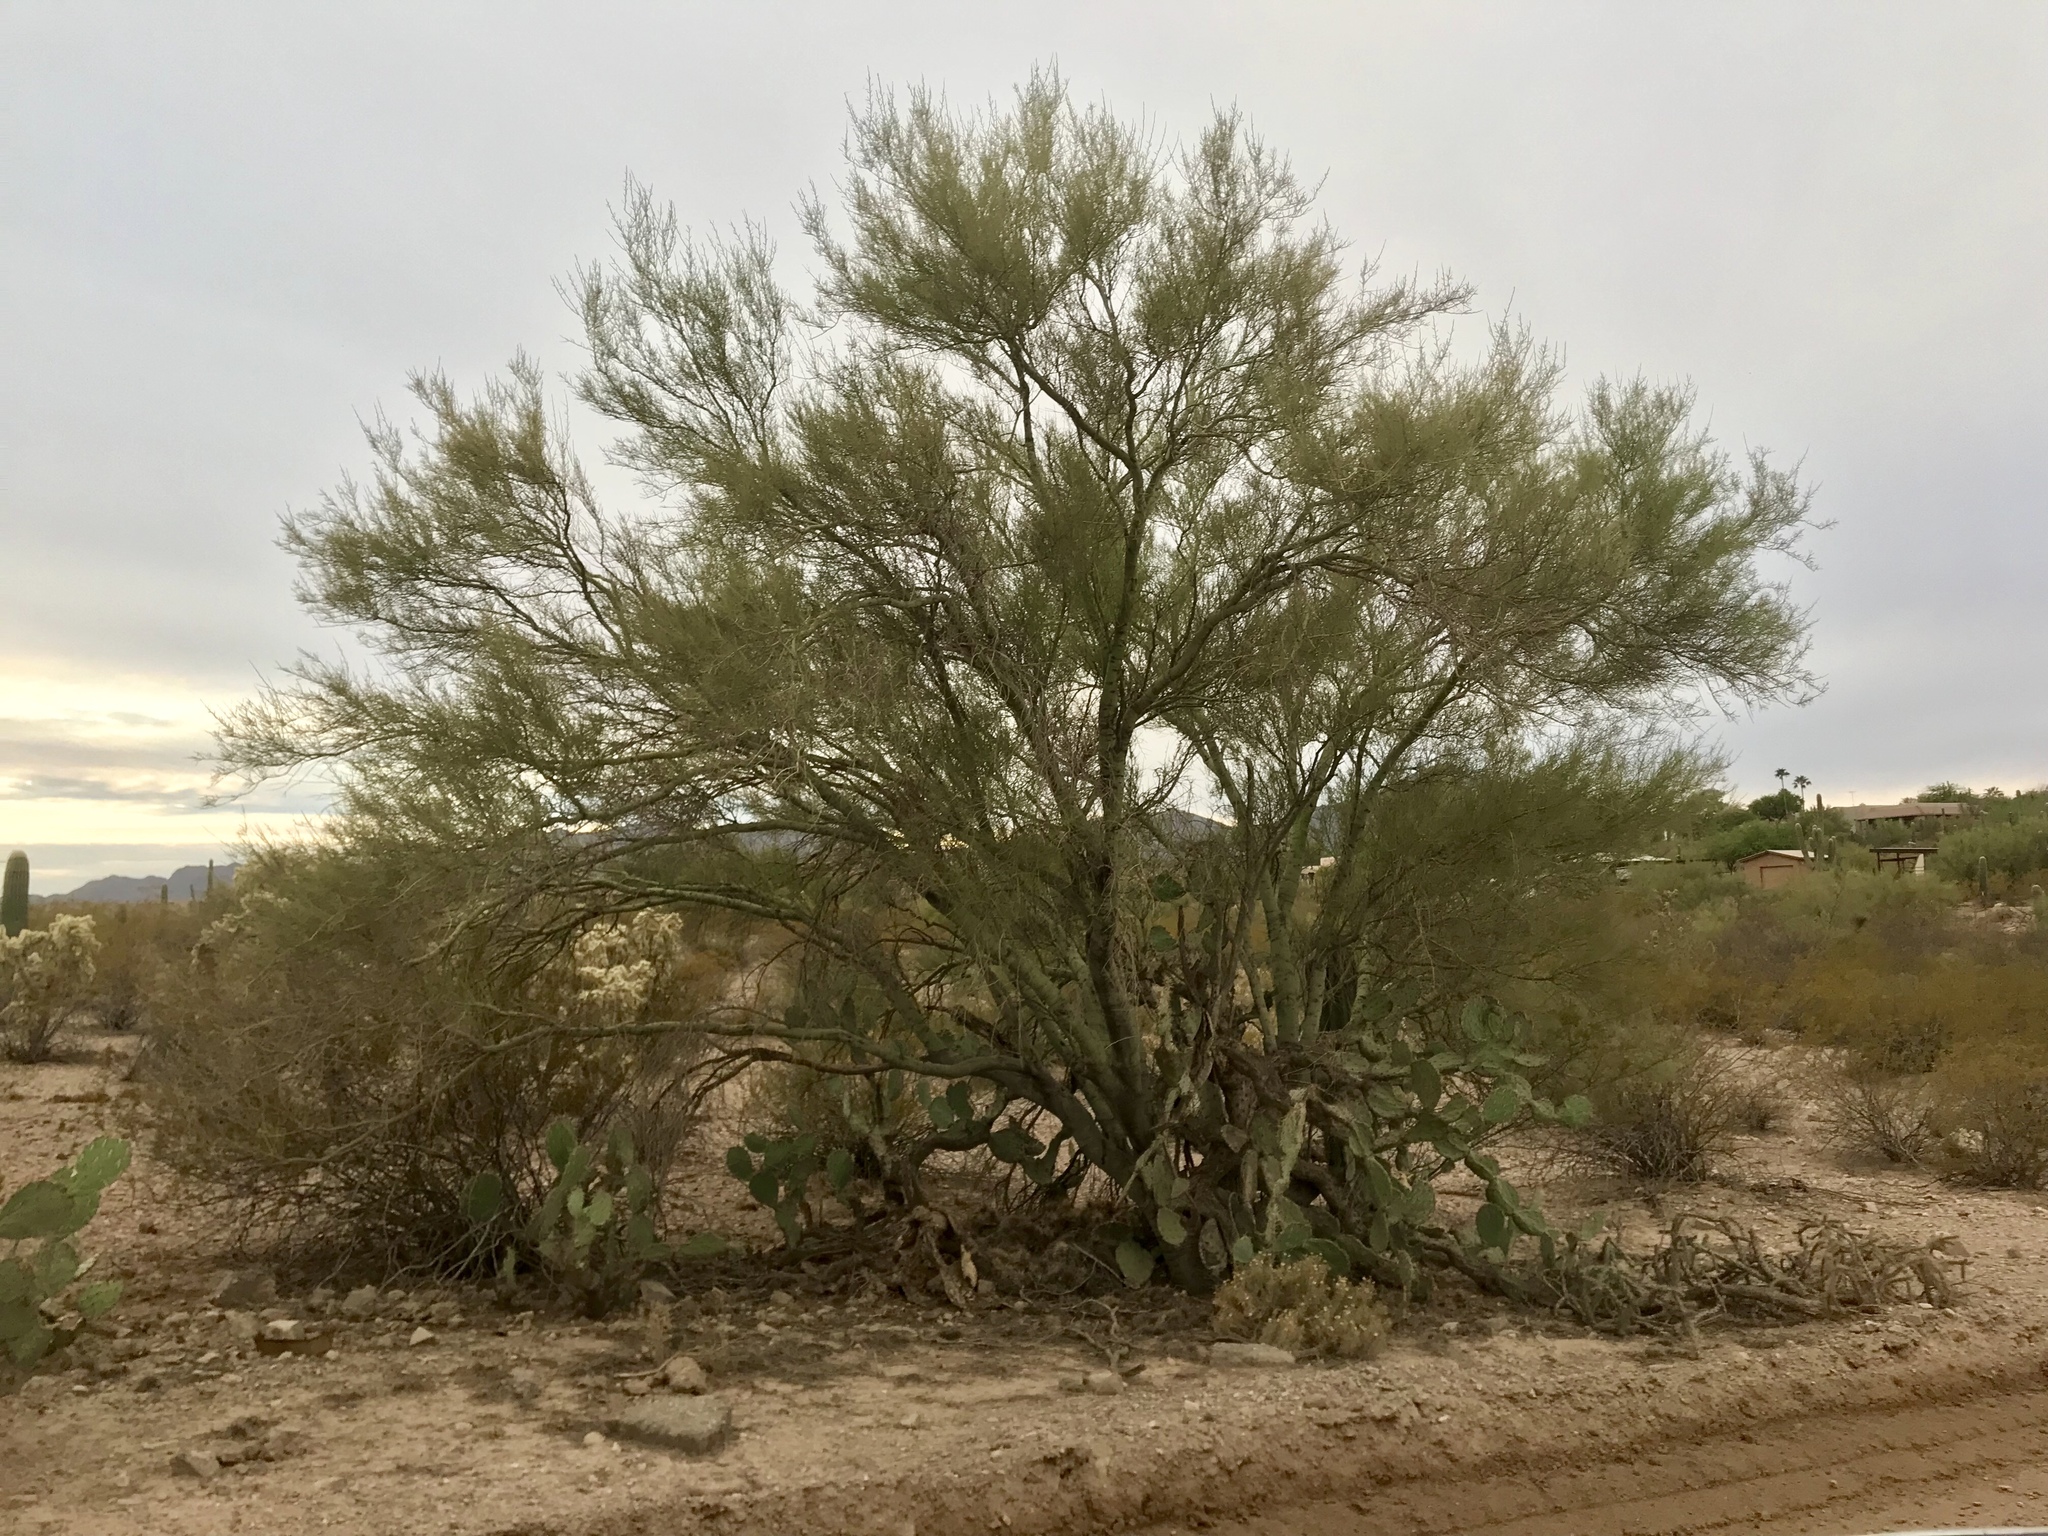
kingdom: Plantae
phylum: Tracheophyta
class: Magnoliopsida
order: Fabales
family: Fabaceae
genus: Parkinsonia
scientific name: Parkinsonia florida
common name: Blue paloverde
